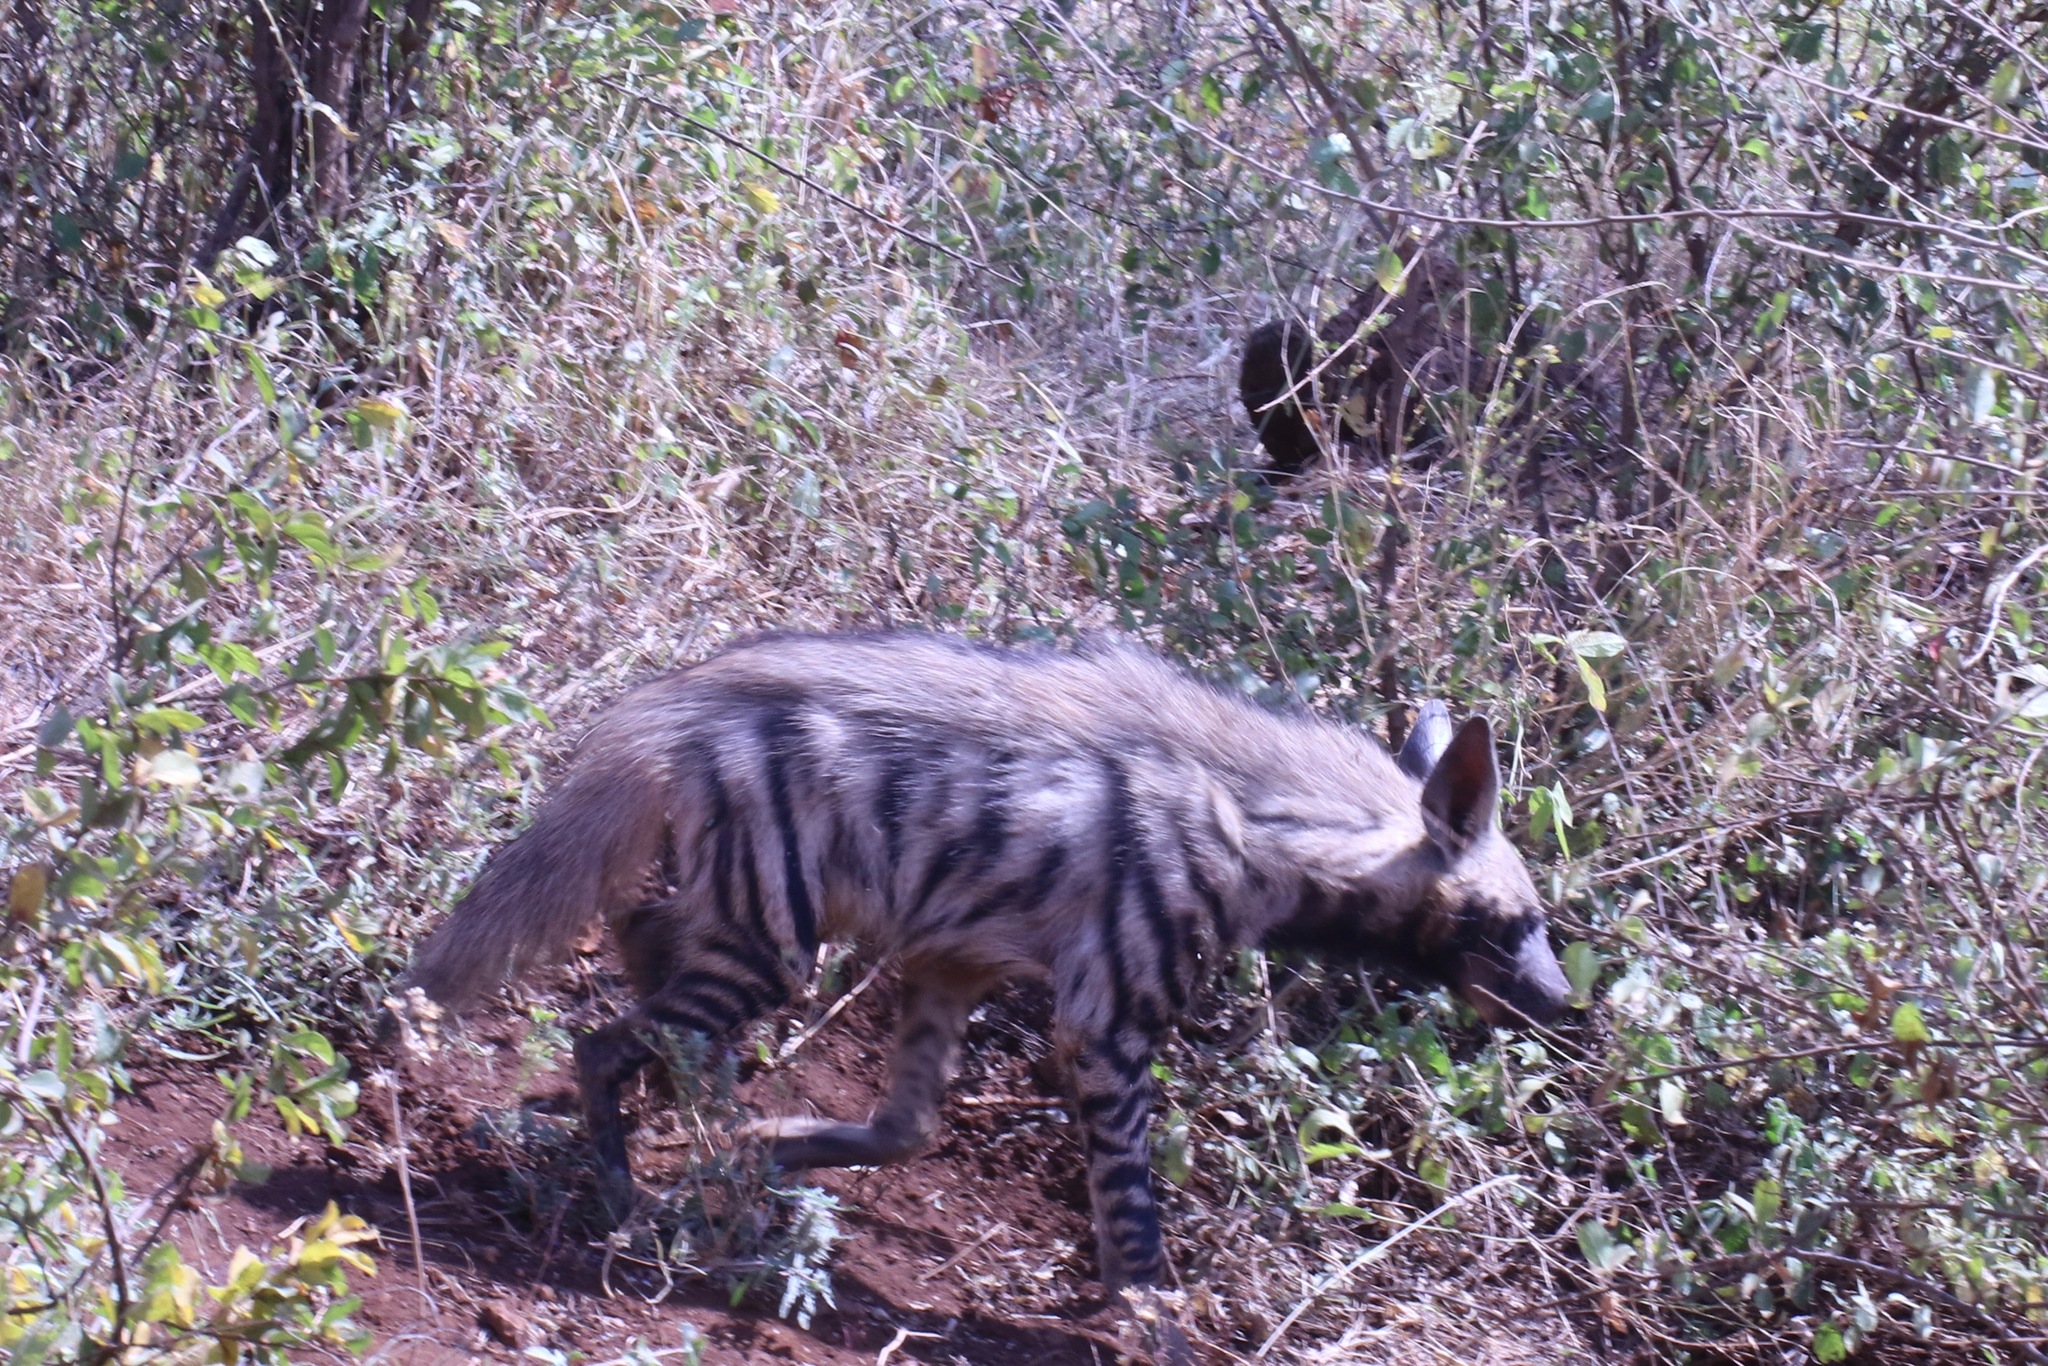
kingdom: Animalia
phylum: Chordata
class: Mammalia
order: Carnivora
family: Hyaenidae
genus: Hyaena
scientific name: Hyaena hyaena
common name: Striped hyaena
